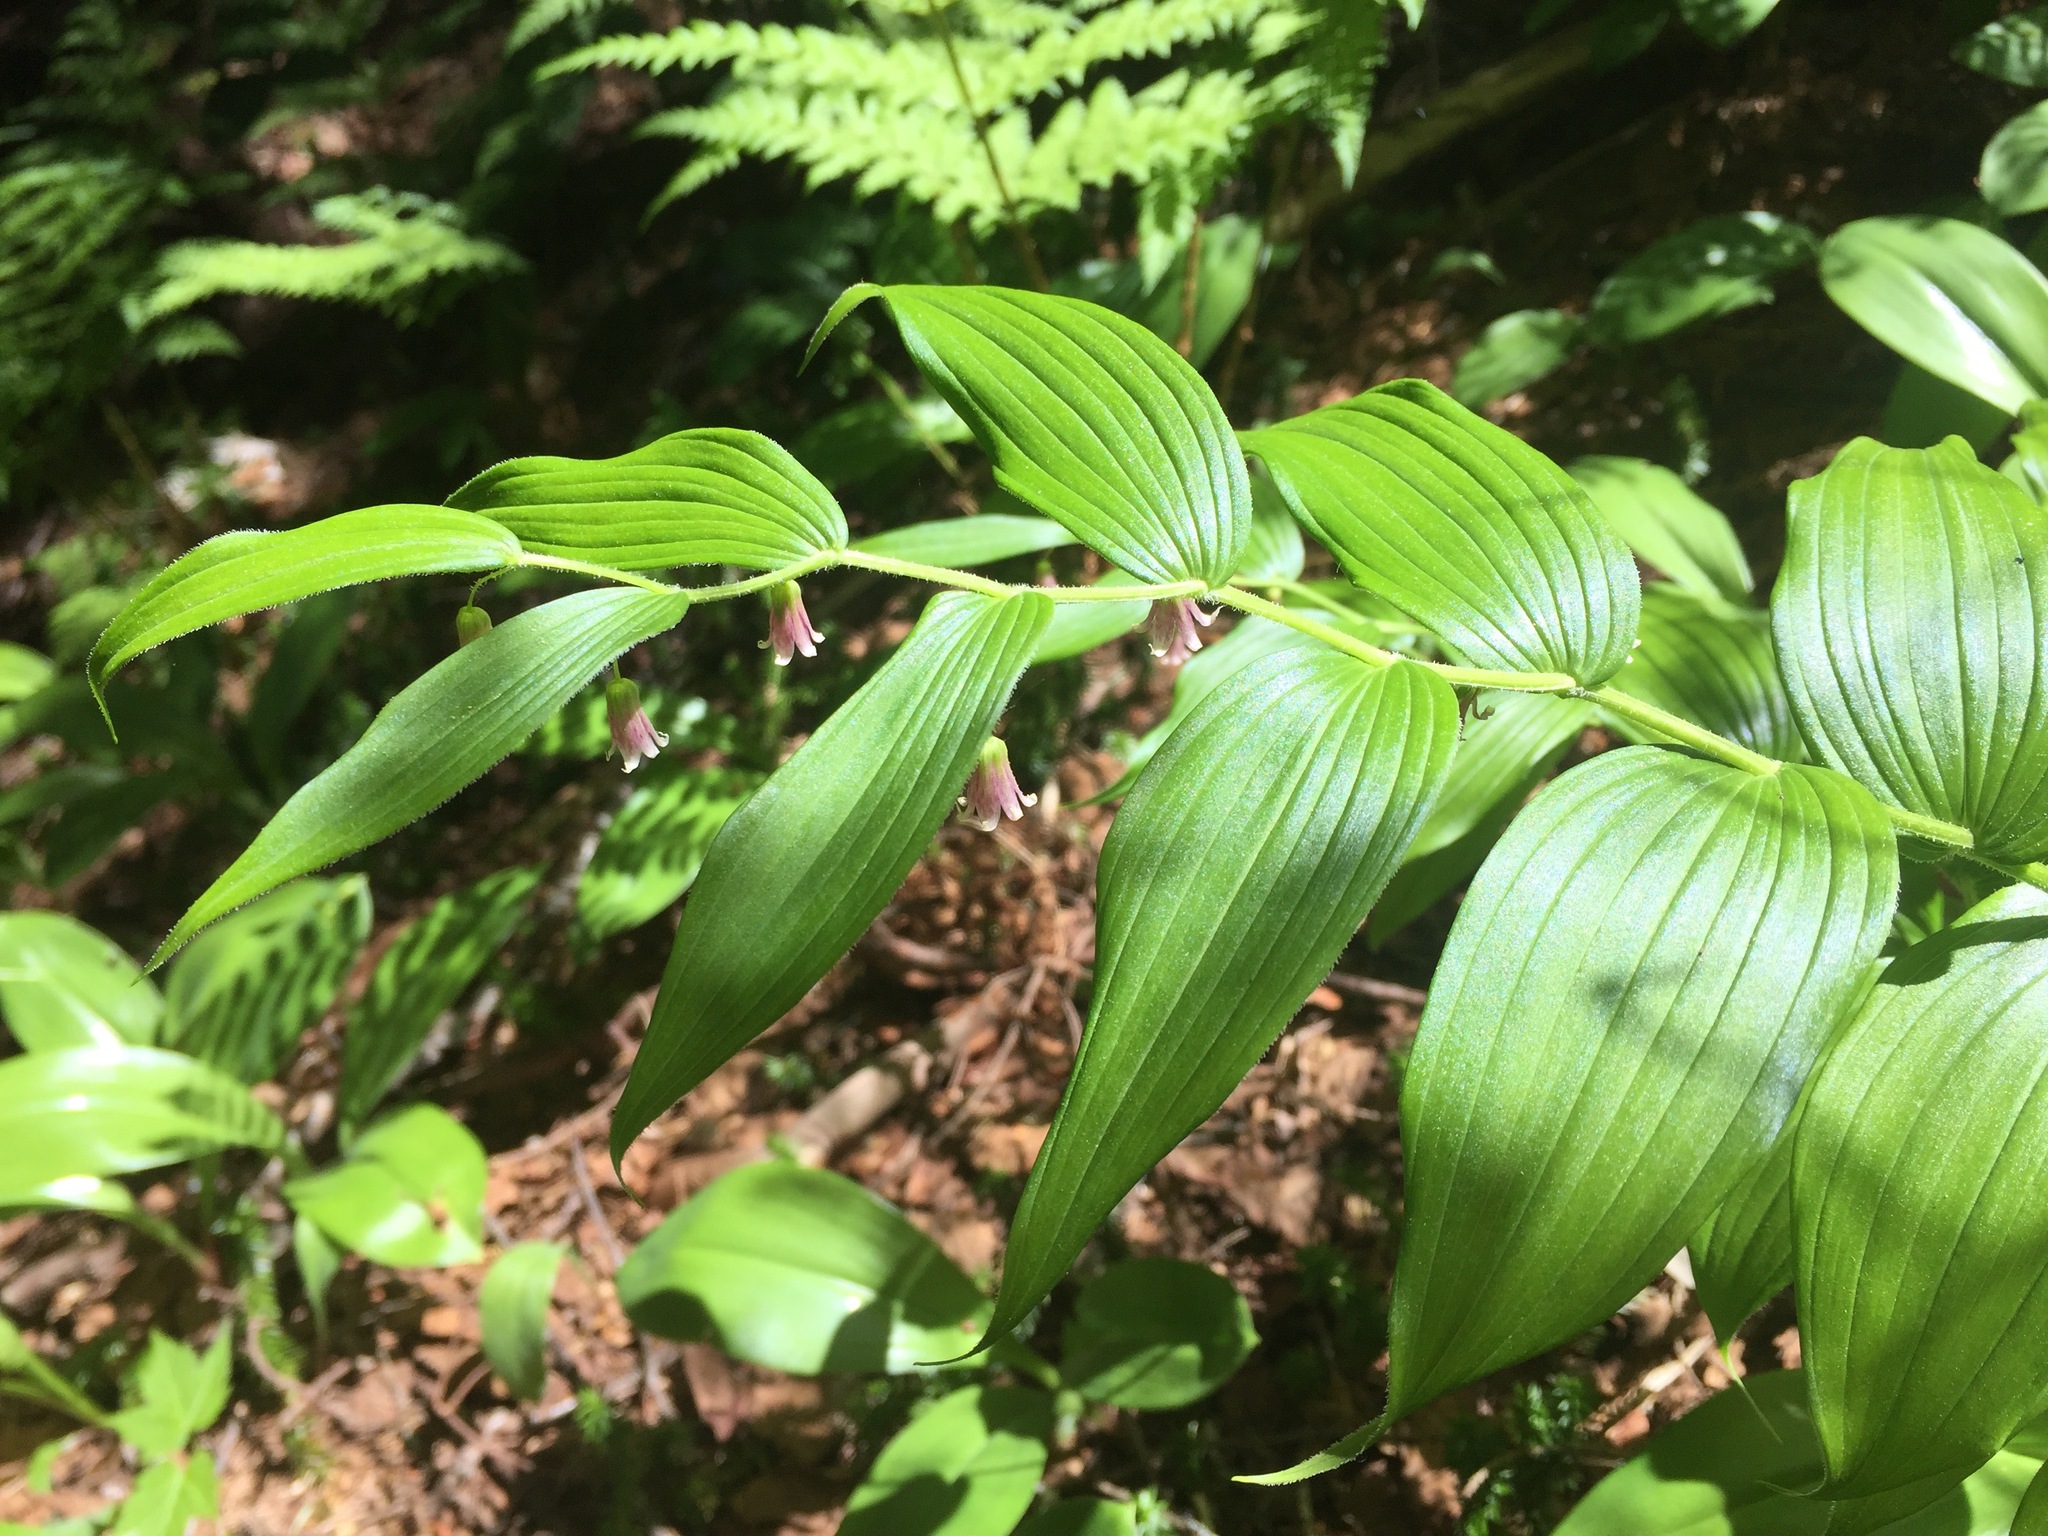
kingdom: Plantae
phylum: Tracheophyta
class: Liliopsida
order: Liliales
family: Liliaceae
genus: Streptopus
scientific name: Streptopus lanceolatus
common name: Rose mandarin
